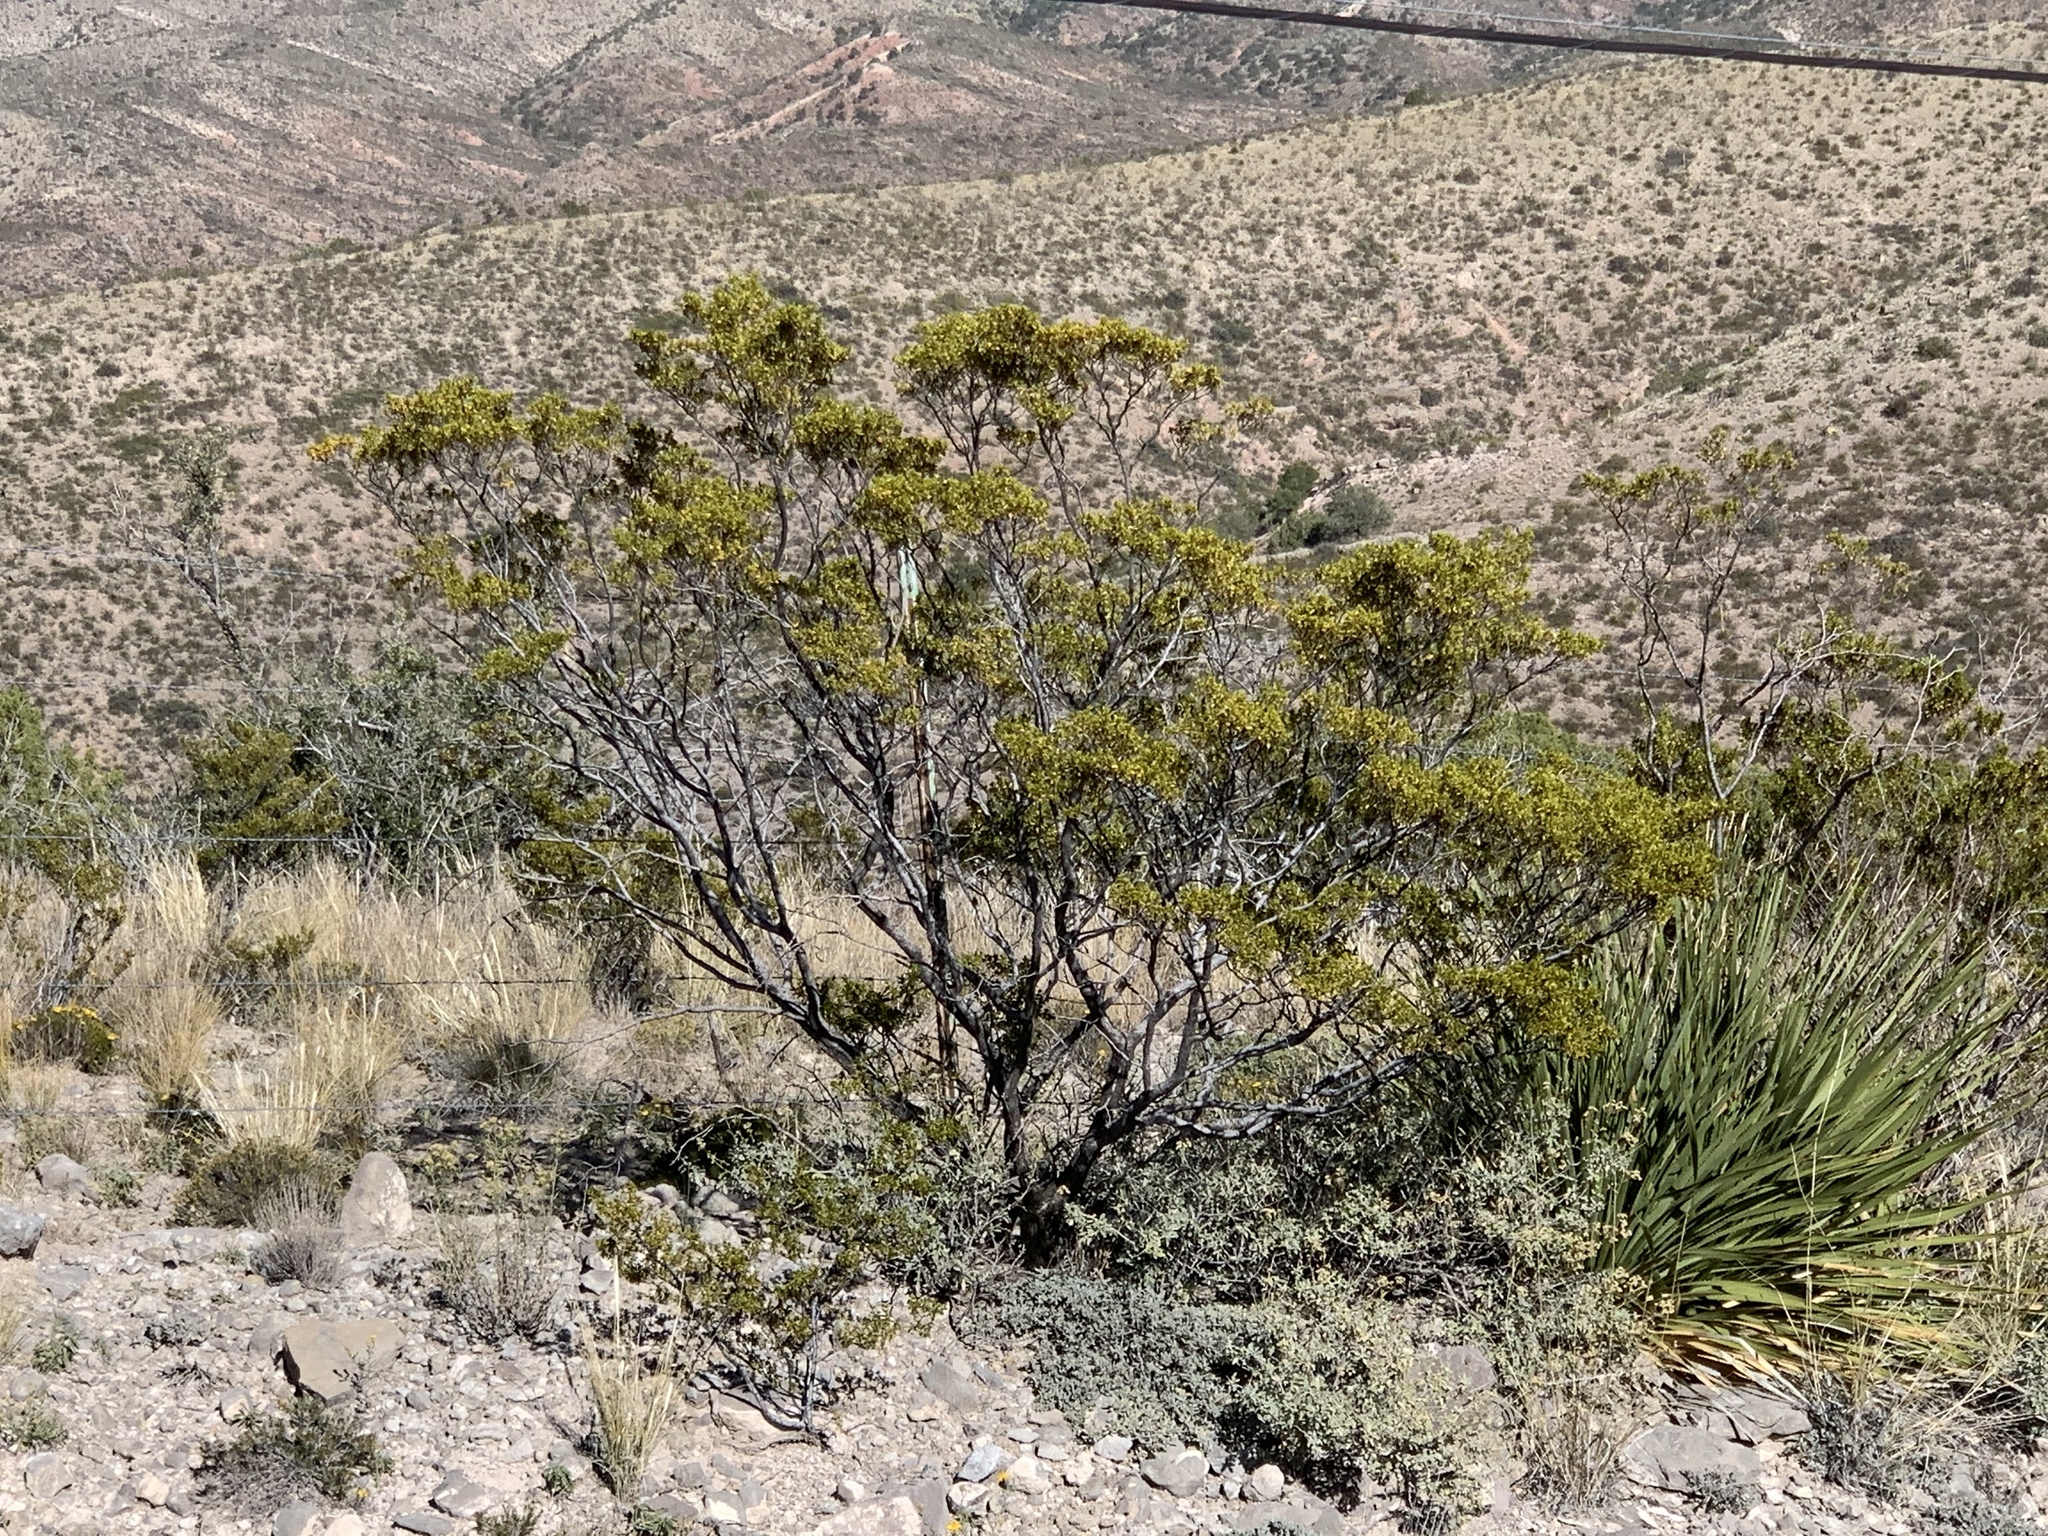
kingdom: Plantae
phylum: Tracheophyta
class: Magnoliopsida
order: Zygophyllales
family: Zygophyllaceae
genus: Larrea
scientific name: Larrea tridentata
